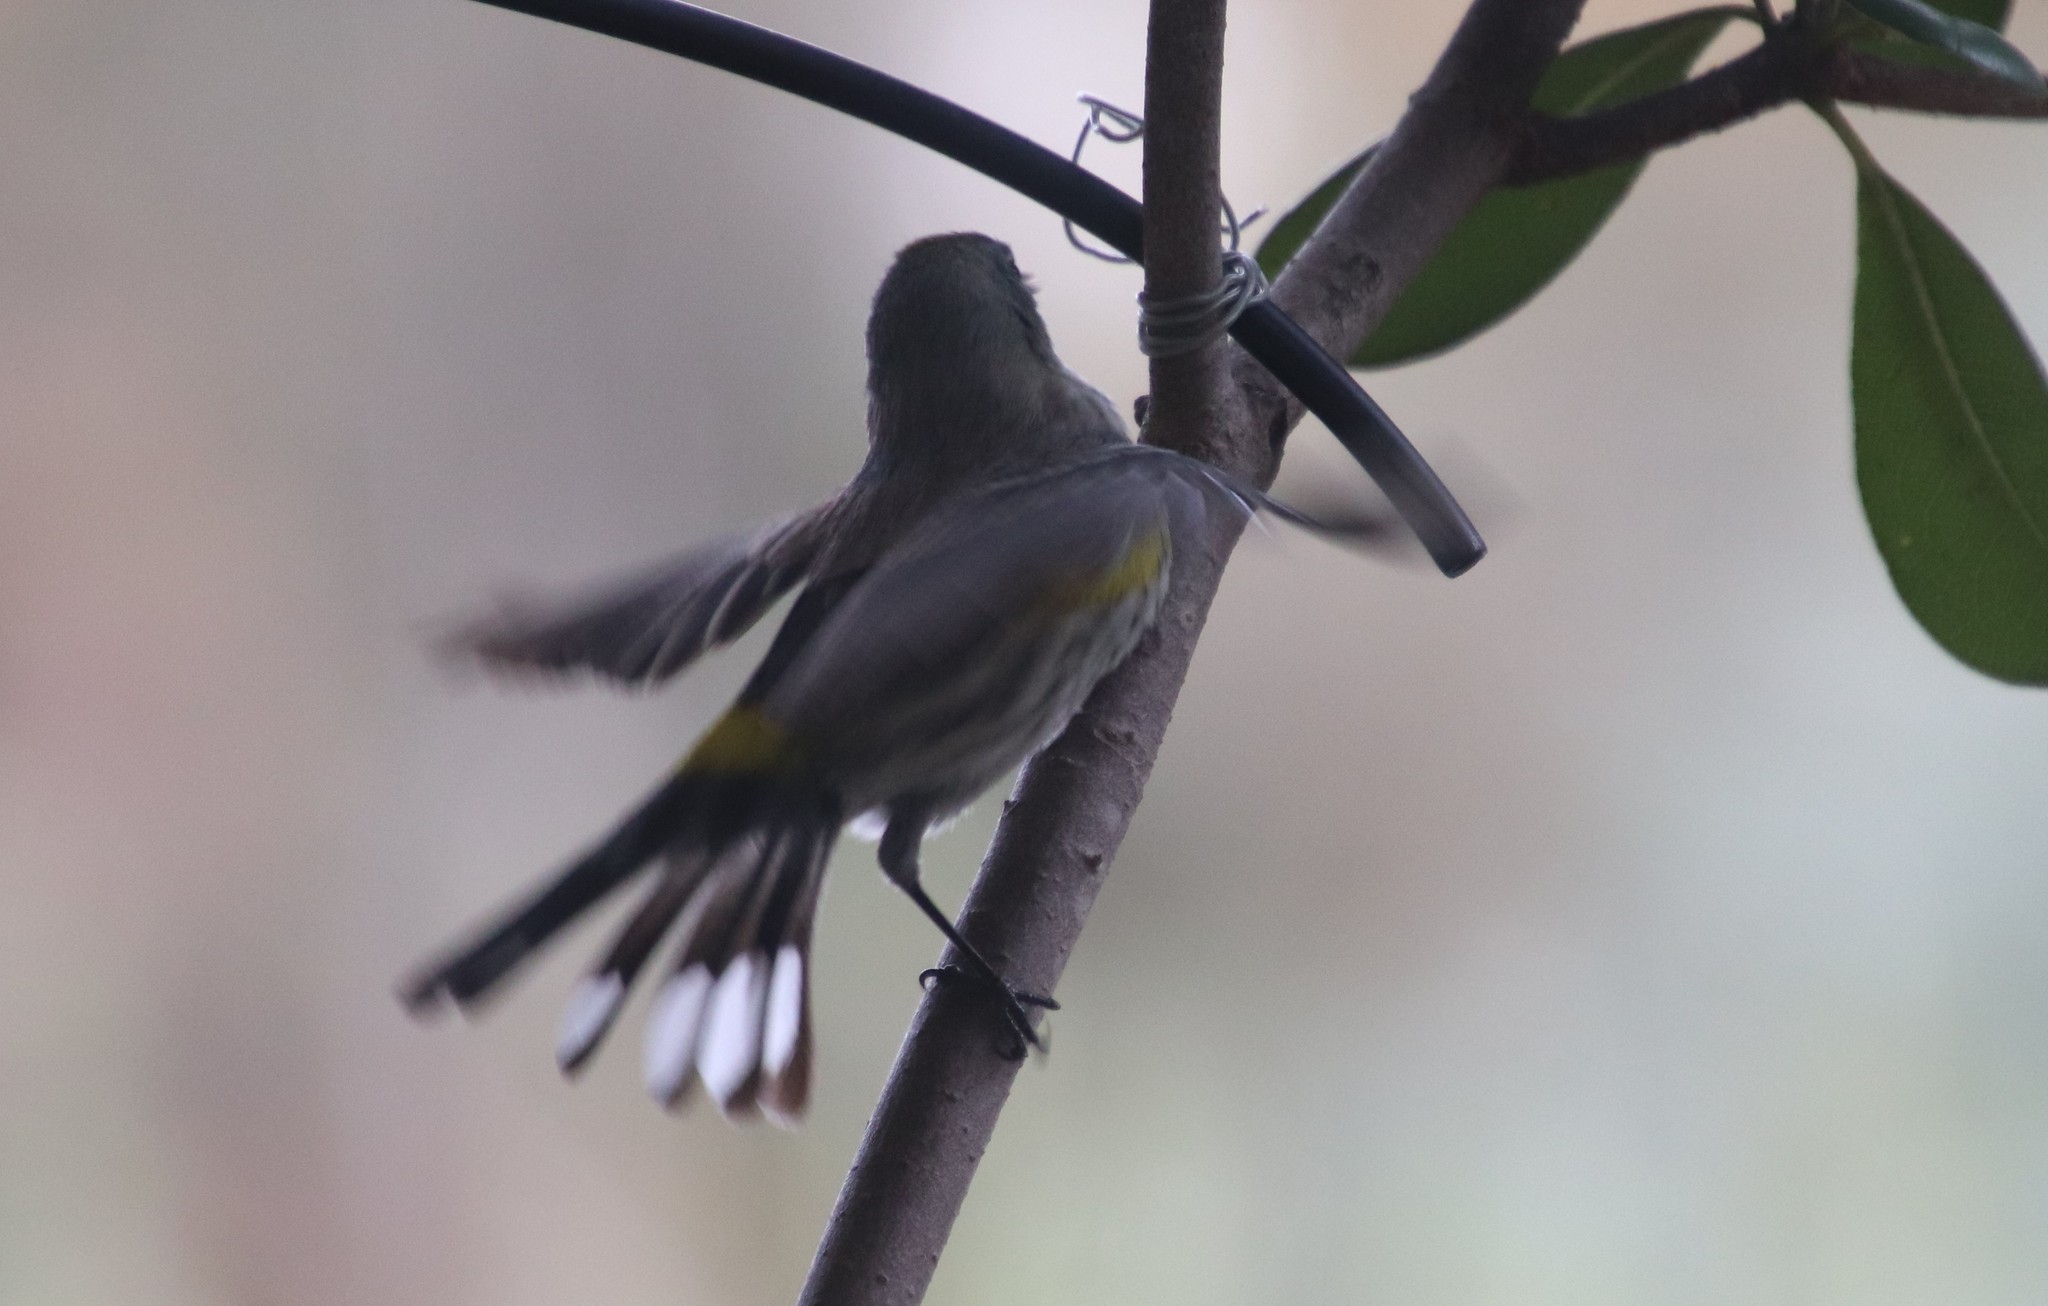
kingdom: Animalia
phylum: Chordata
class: Aves
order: Passeriformes
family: Parulidae
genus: Setophaga
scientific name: Setophaga coronata
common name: Myrtle warbler
